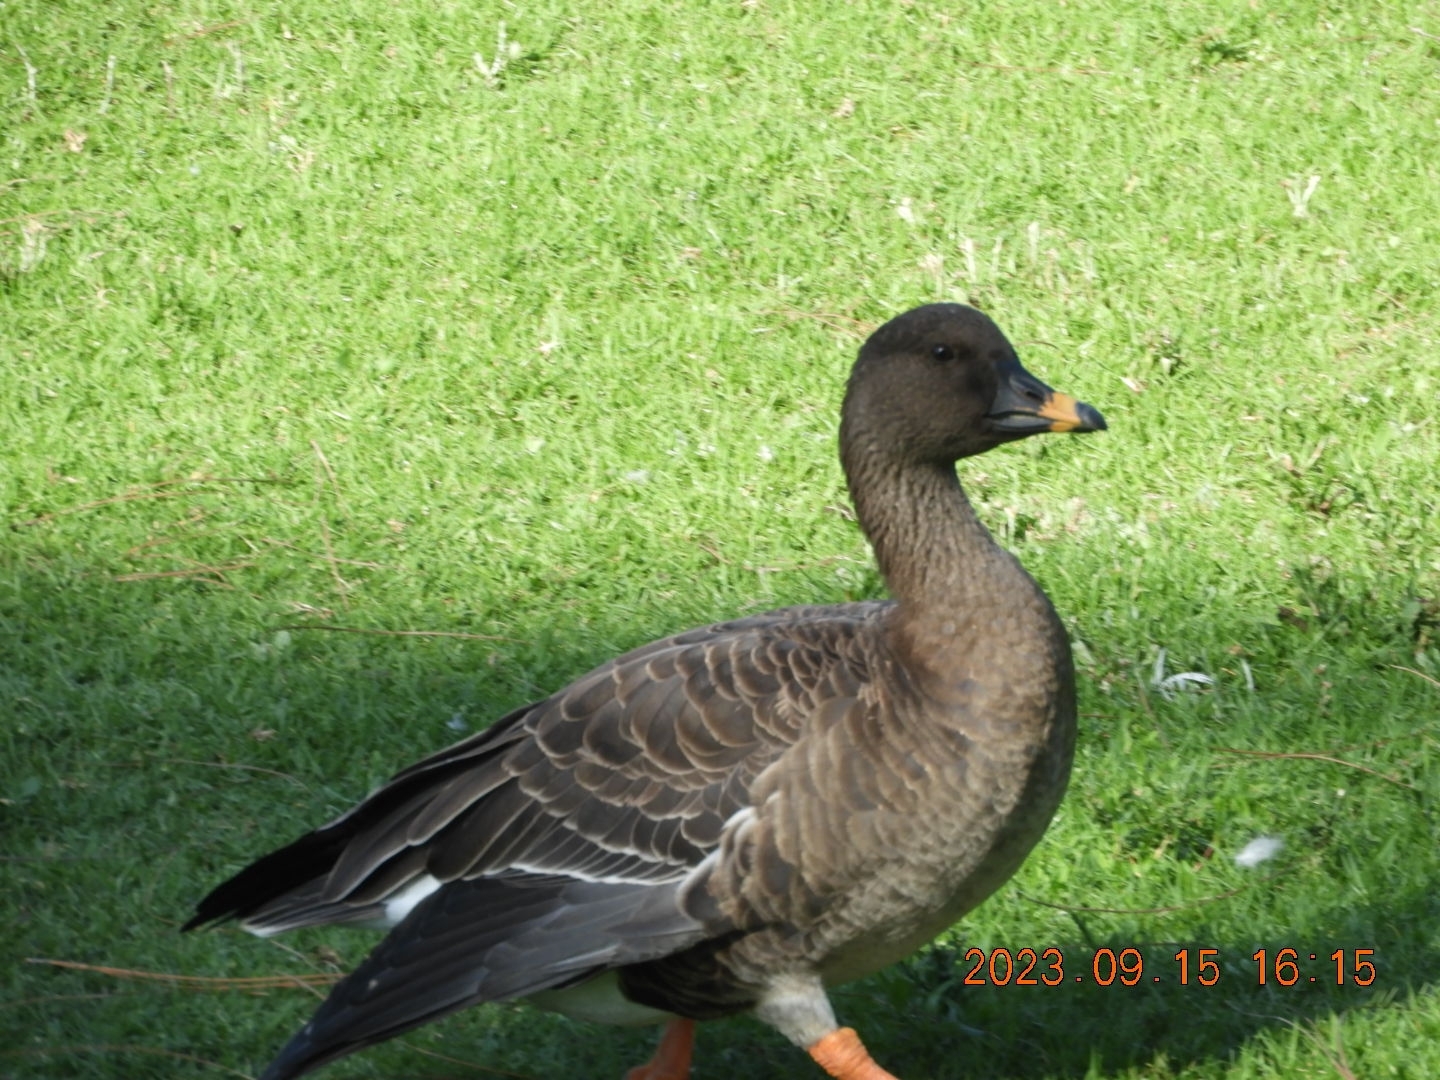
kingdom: Animalia
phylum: Chordata
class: Aves
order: Anseriformes
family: Anatidae
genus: Anser
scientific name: Anser serrirostris
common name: Tundra bean goose
